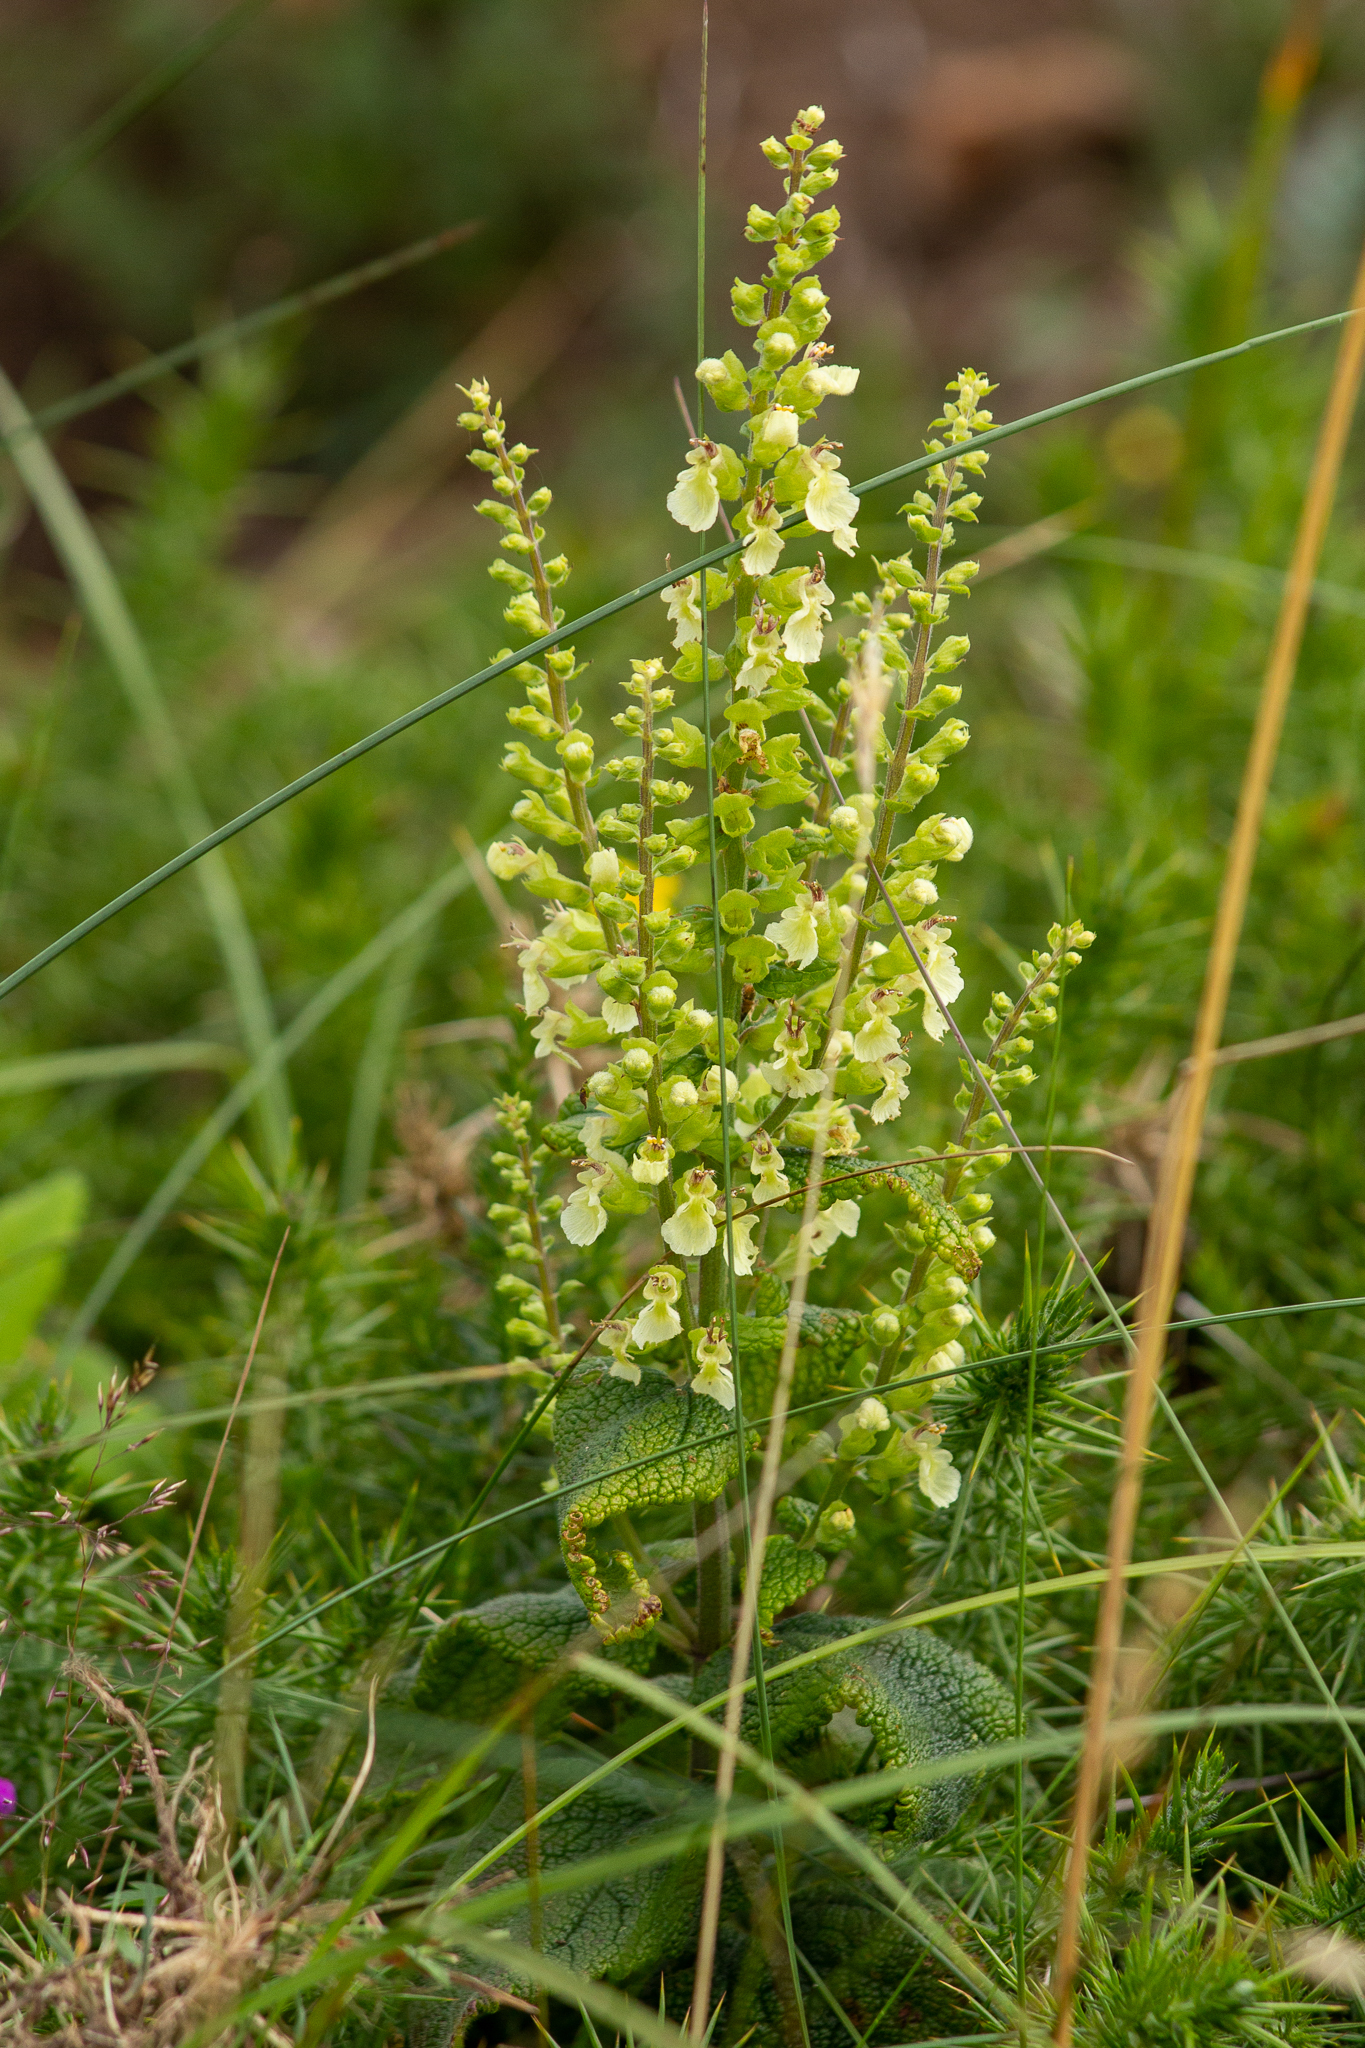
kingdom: Plantae
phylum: Tracheophyta
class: Magnoliopsida
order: Lamiales
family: Lamiaceae
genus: Teucrium
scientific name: Teucrium scorodonia
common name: Woodland germander
